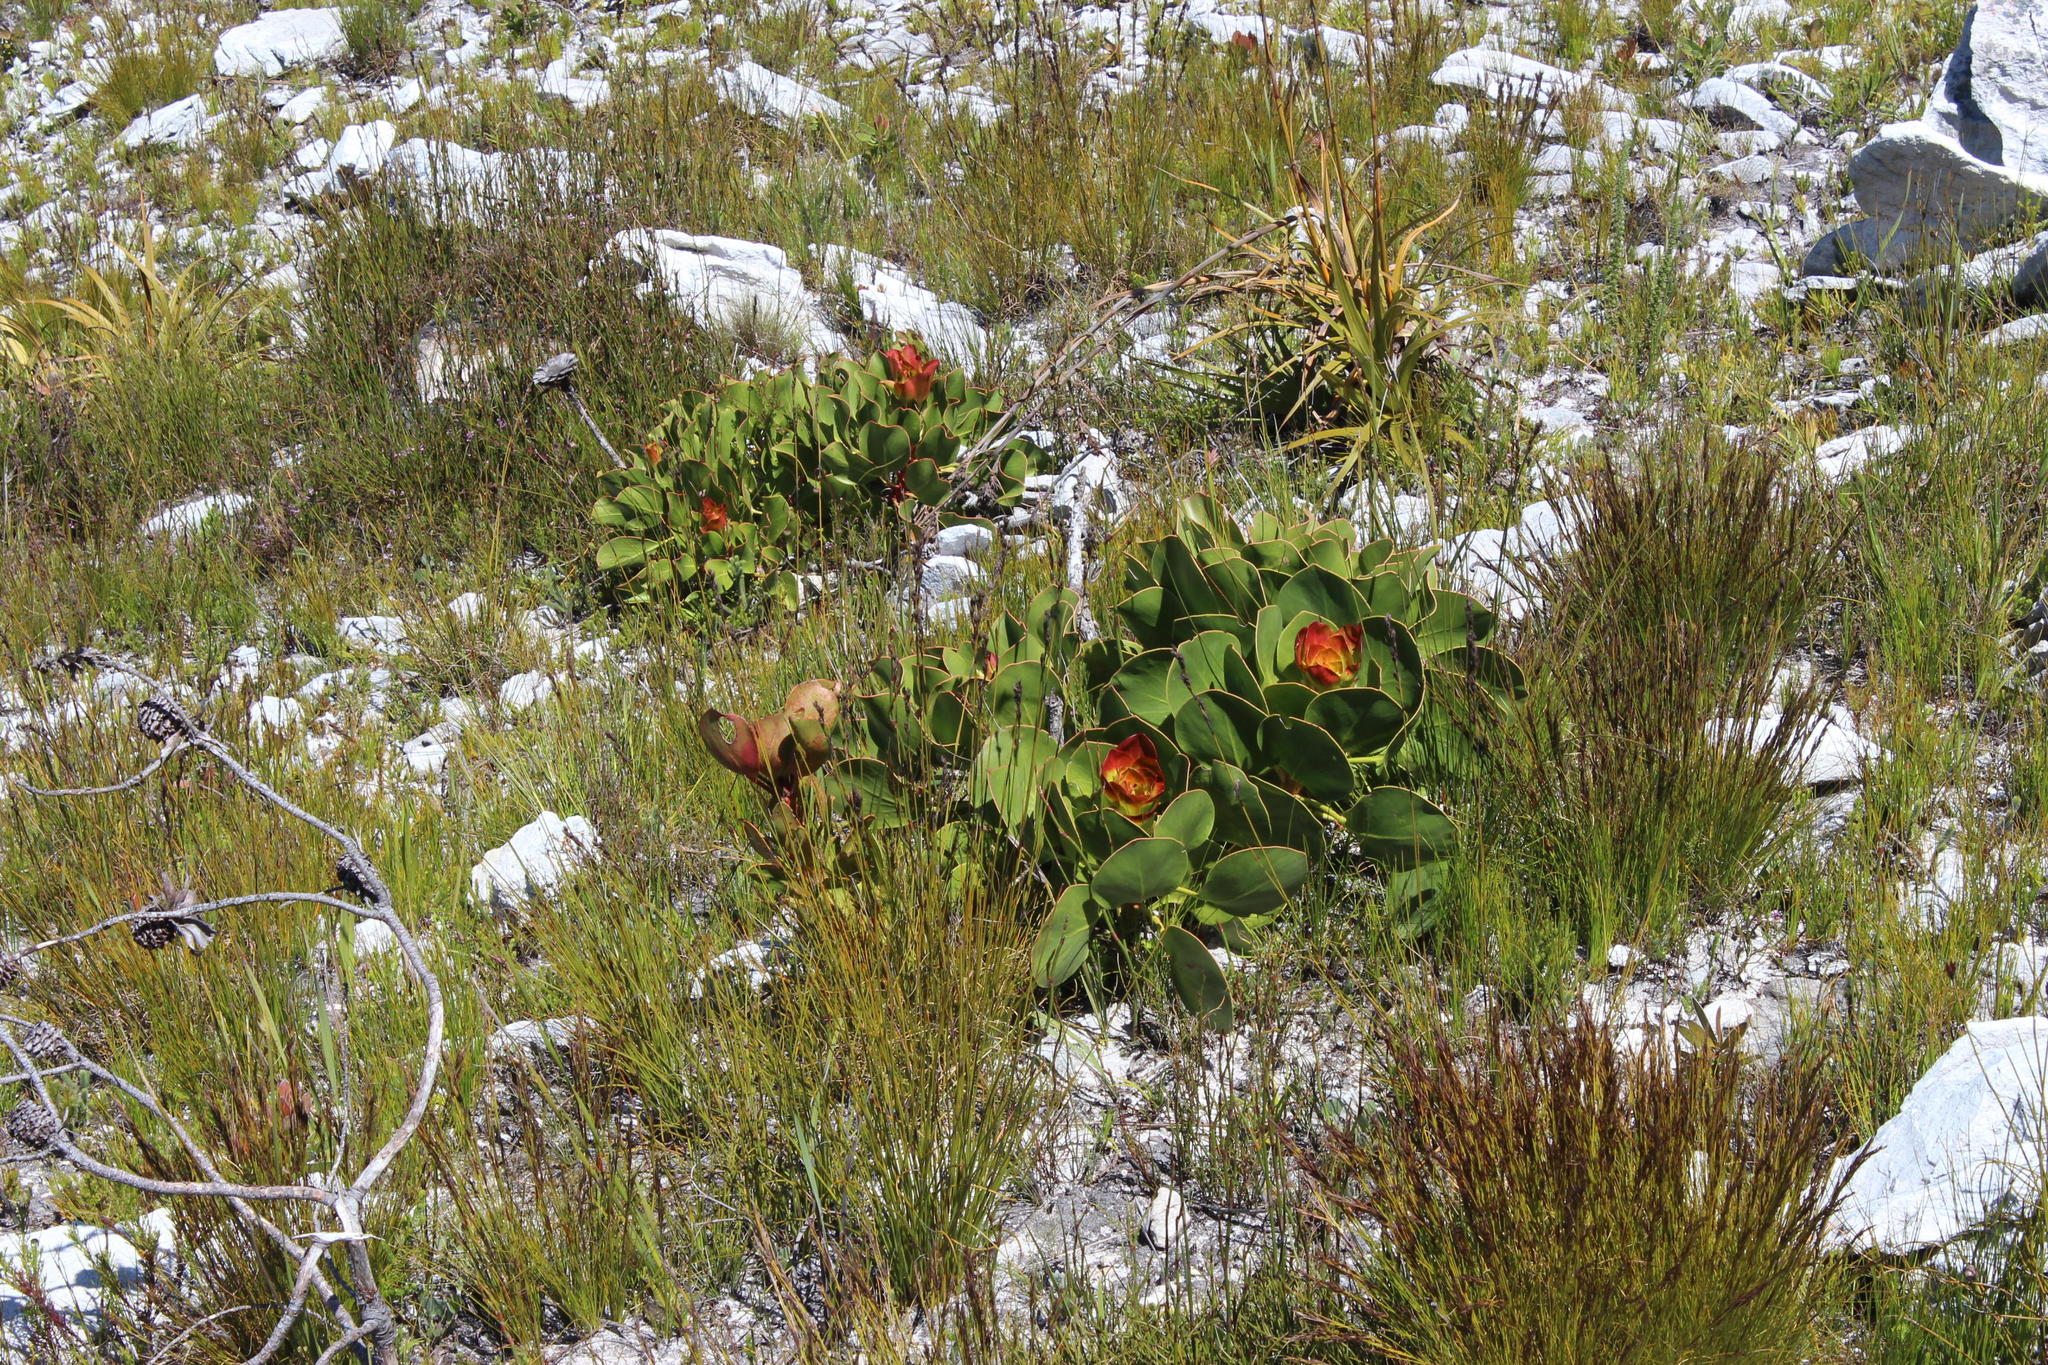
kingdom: Plantae
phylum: Tracheophyta
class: Magnoliopsida
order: Proteales
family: Proteaceae
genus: Protea
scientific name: Protea cynaroides
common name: King protea
